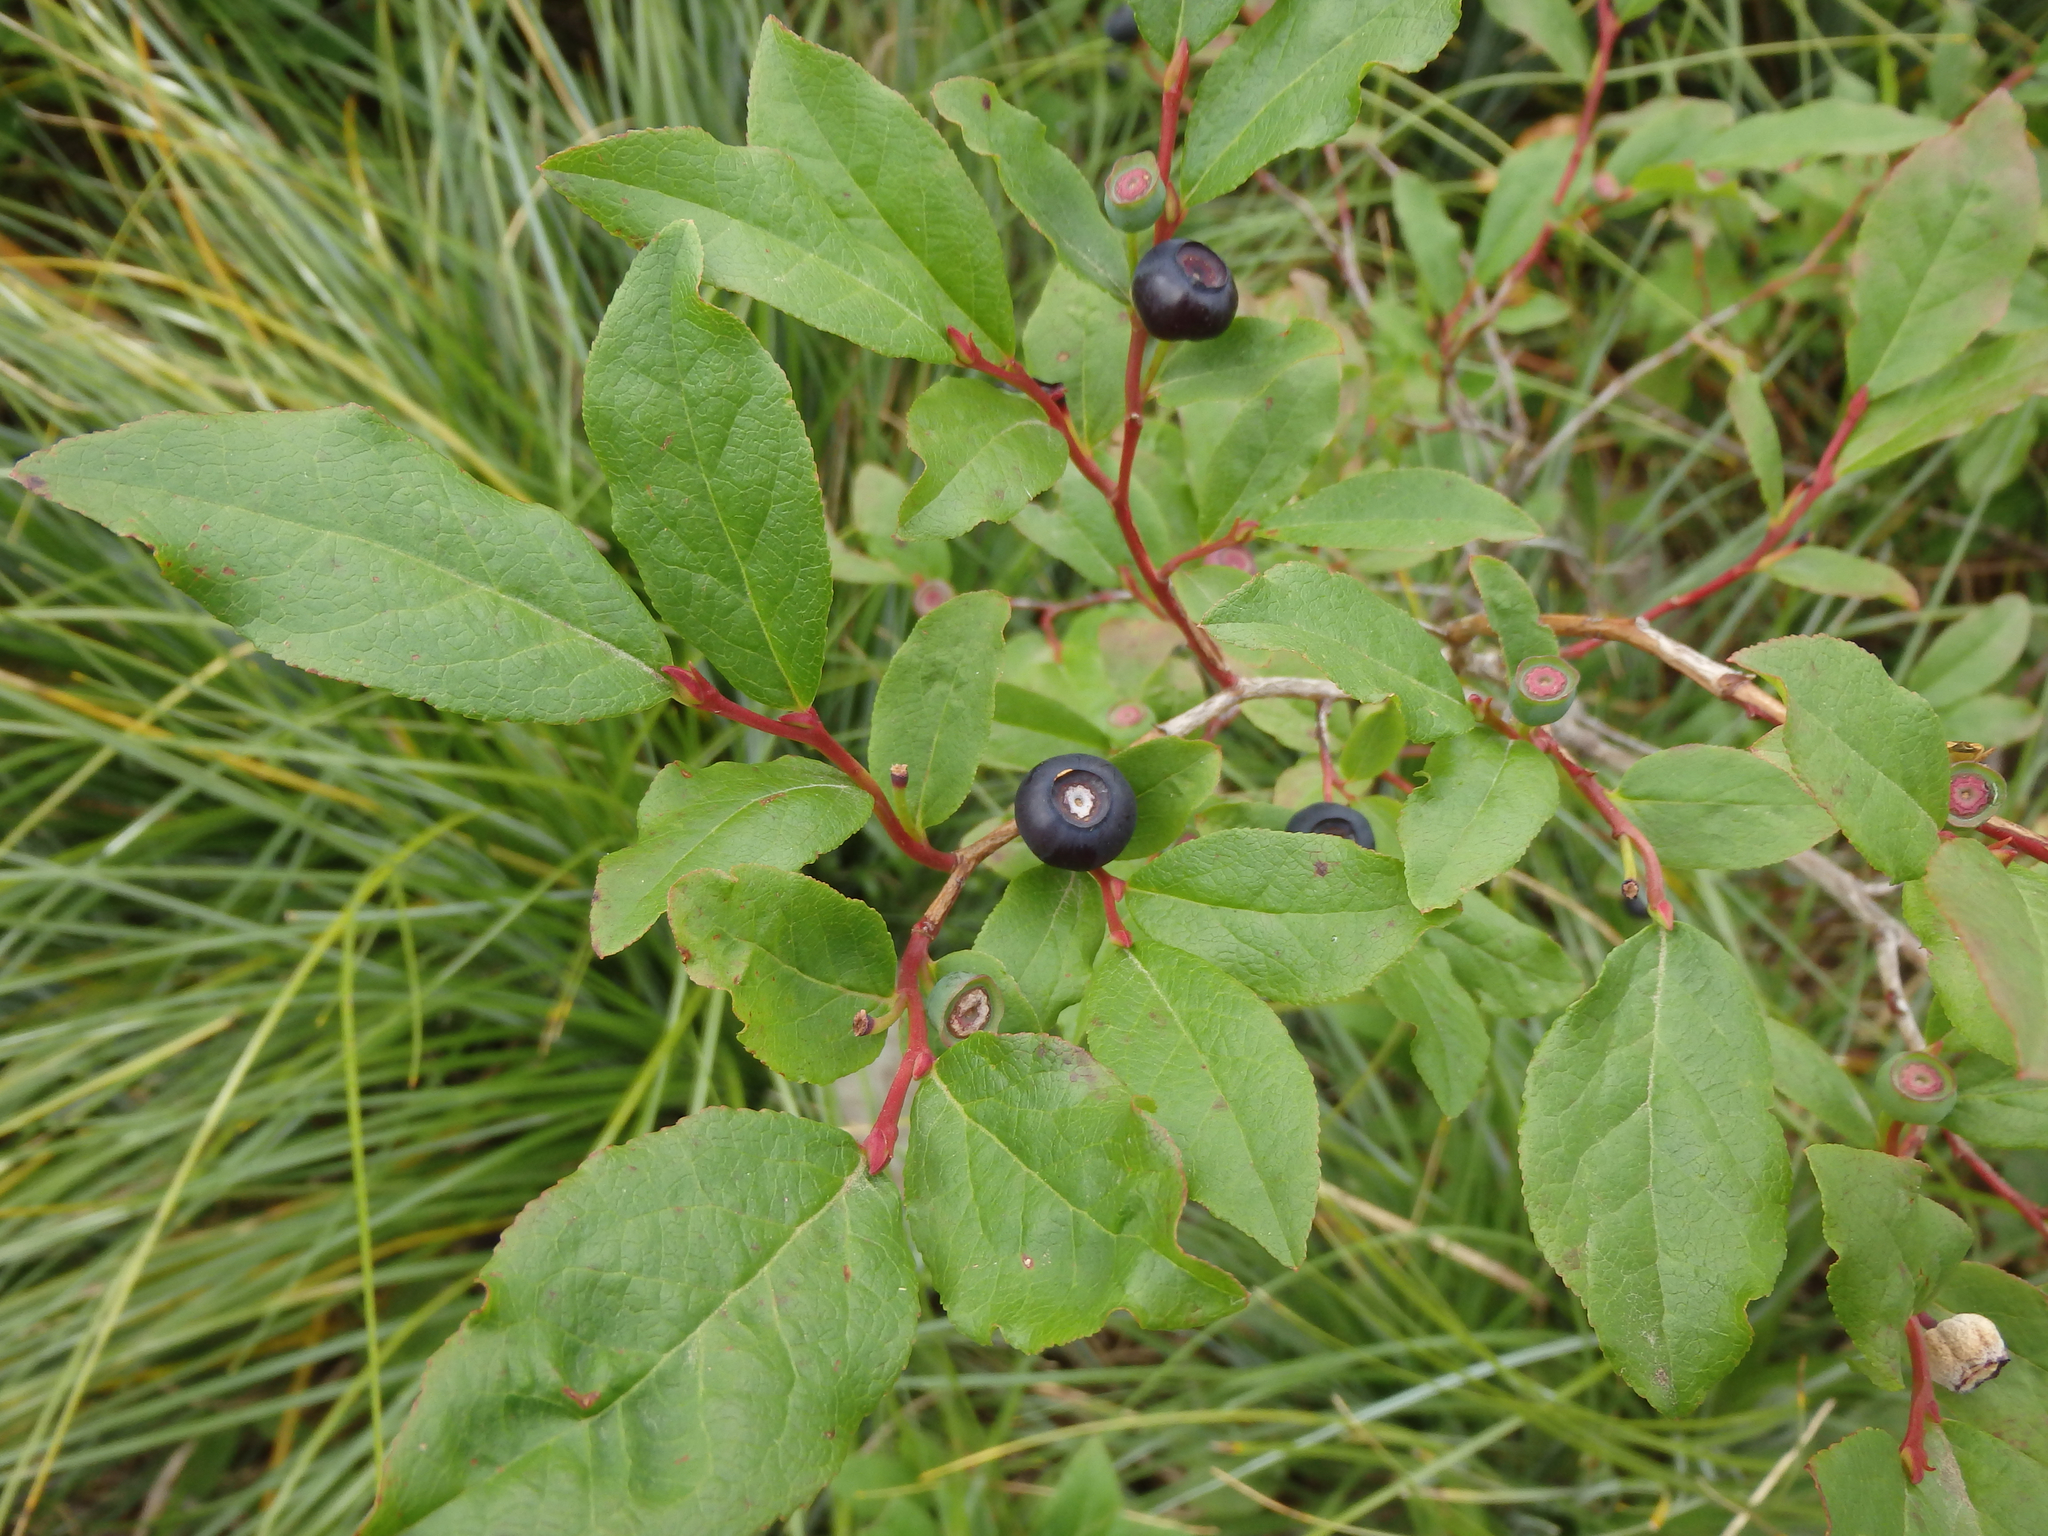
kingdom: Plantae
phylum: Tracheophyta
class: Magnoliopsida
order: Ericales
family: Ericaceae
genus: Vaccinium
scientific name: Vaccinium membranaceum
